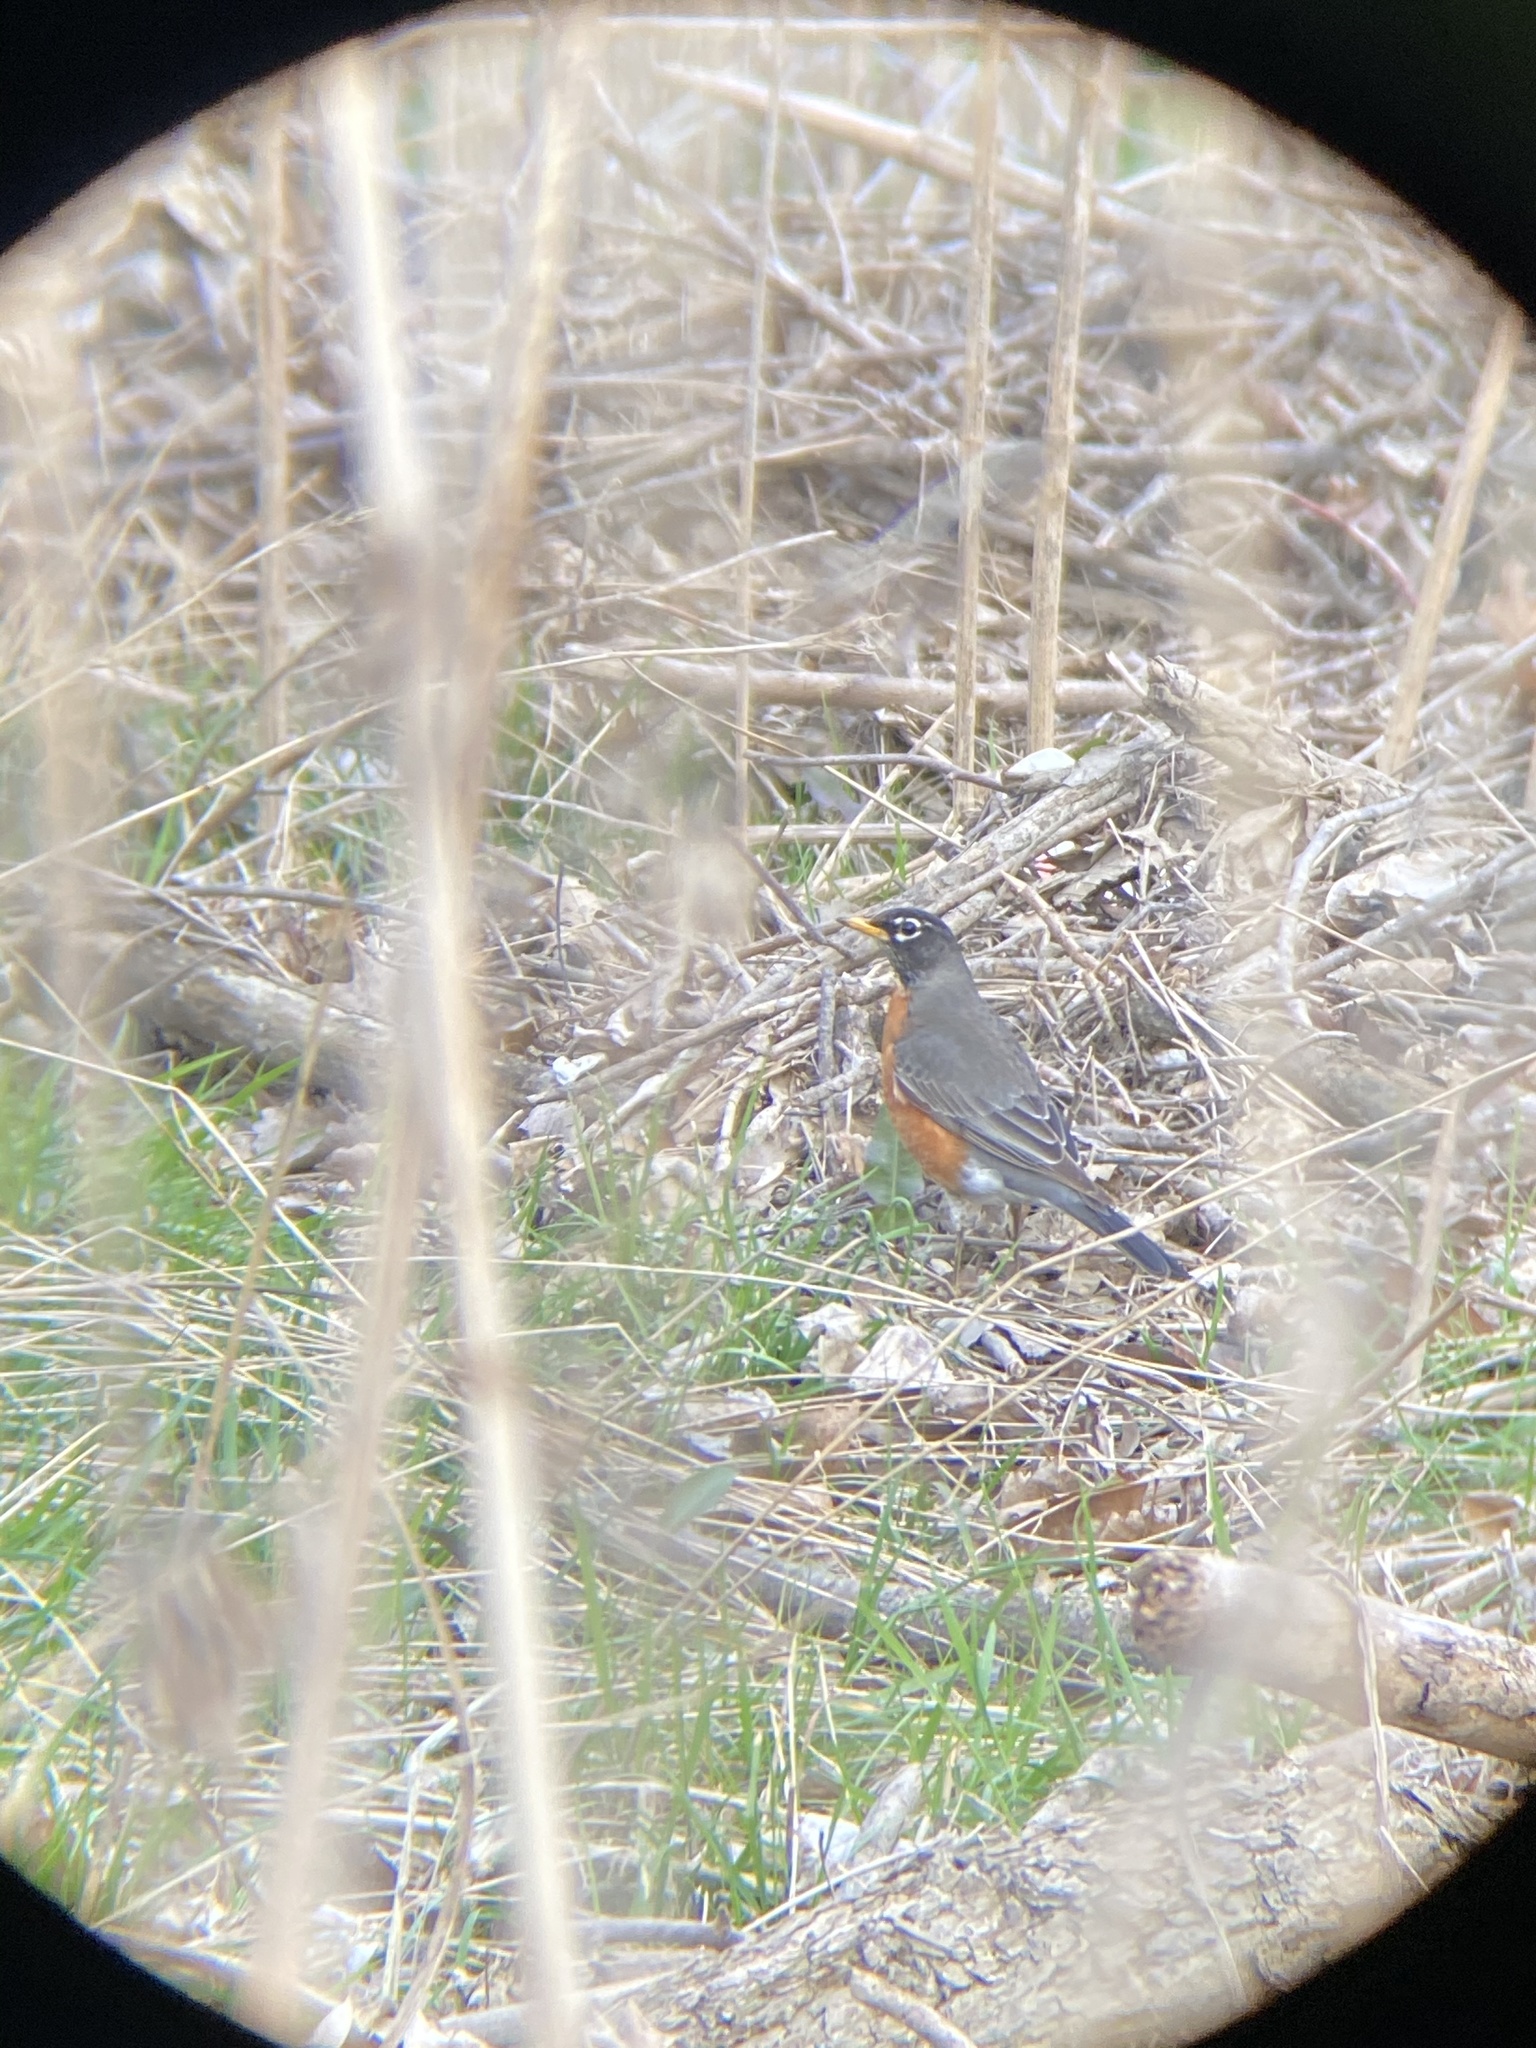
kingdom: Animalia
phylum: Chordata
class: Aves
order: Passeriformes
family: Turdidae
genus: Turdus
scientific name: Turdus migratorius
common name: American robin
